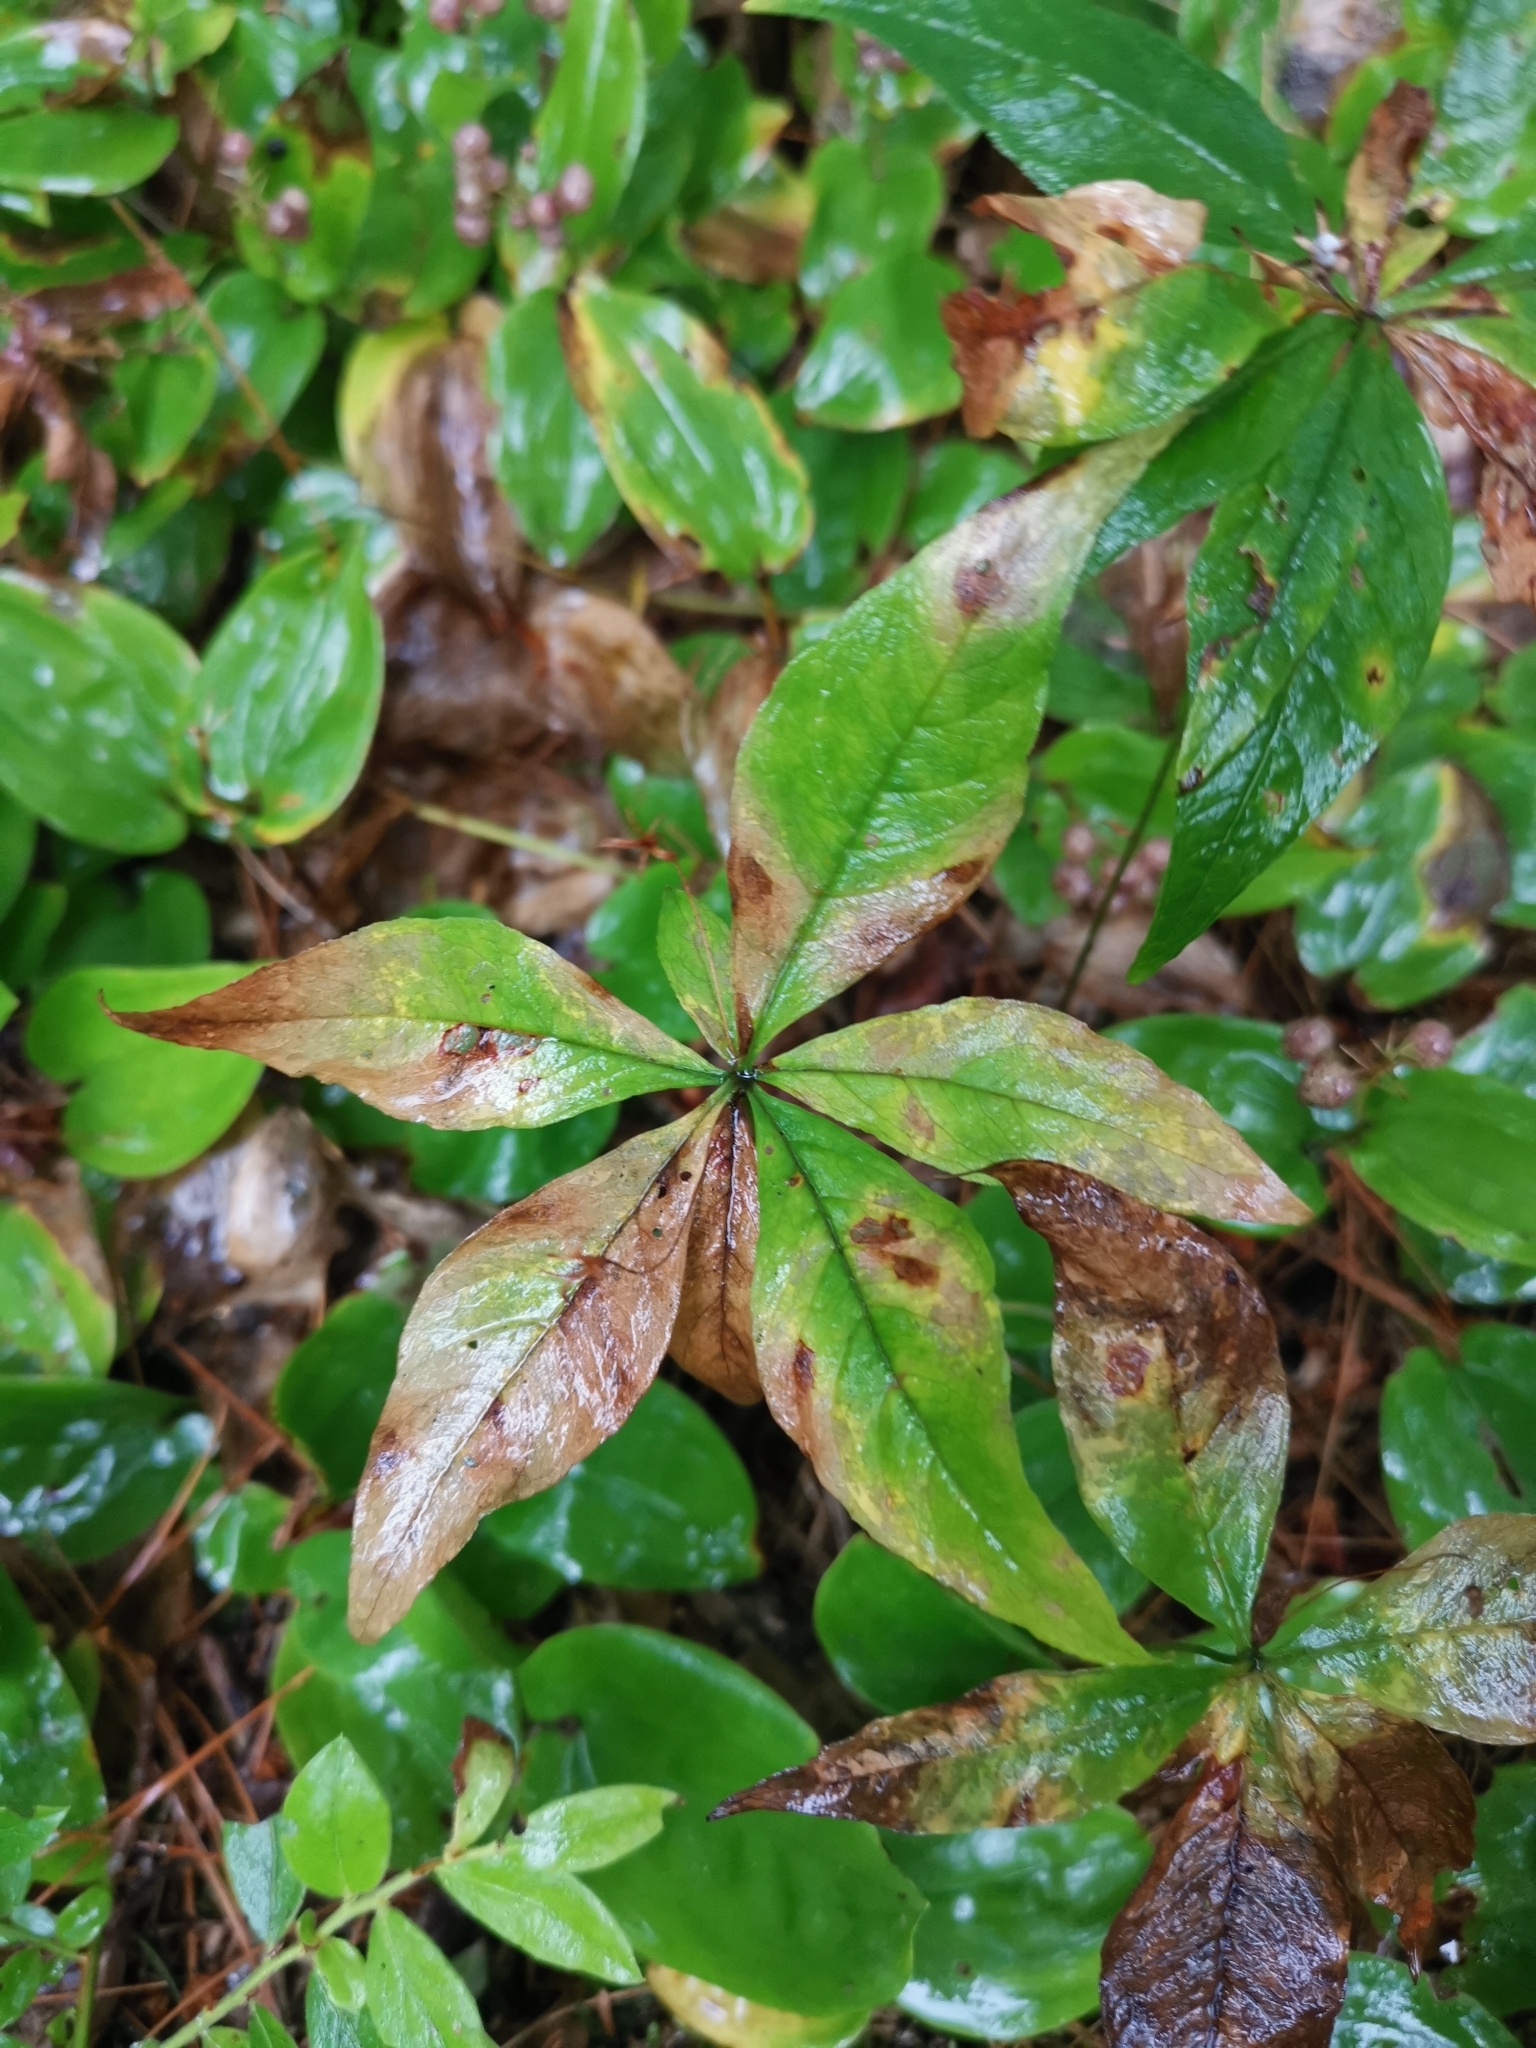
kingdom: Plantae
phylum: Tracheophyta
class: Magnoliopsida
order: Ericales
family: Primulaceae
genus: Lysimachia
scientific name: Lysimachia borealis
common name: American starflower
